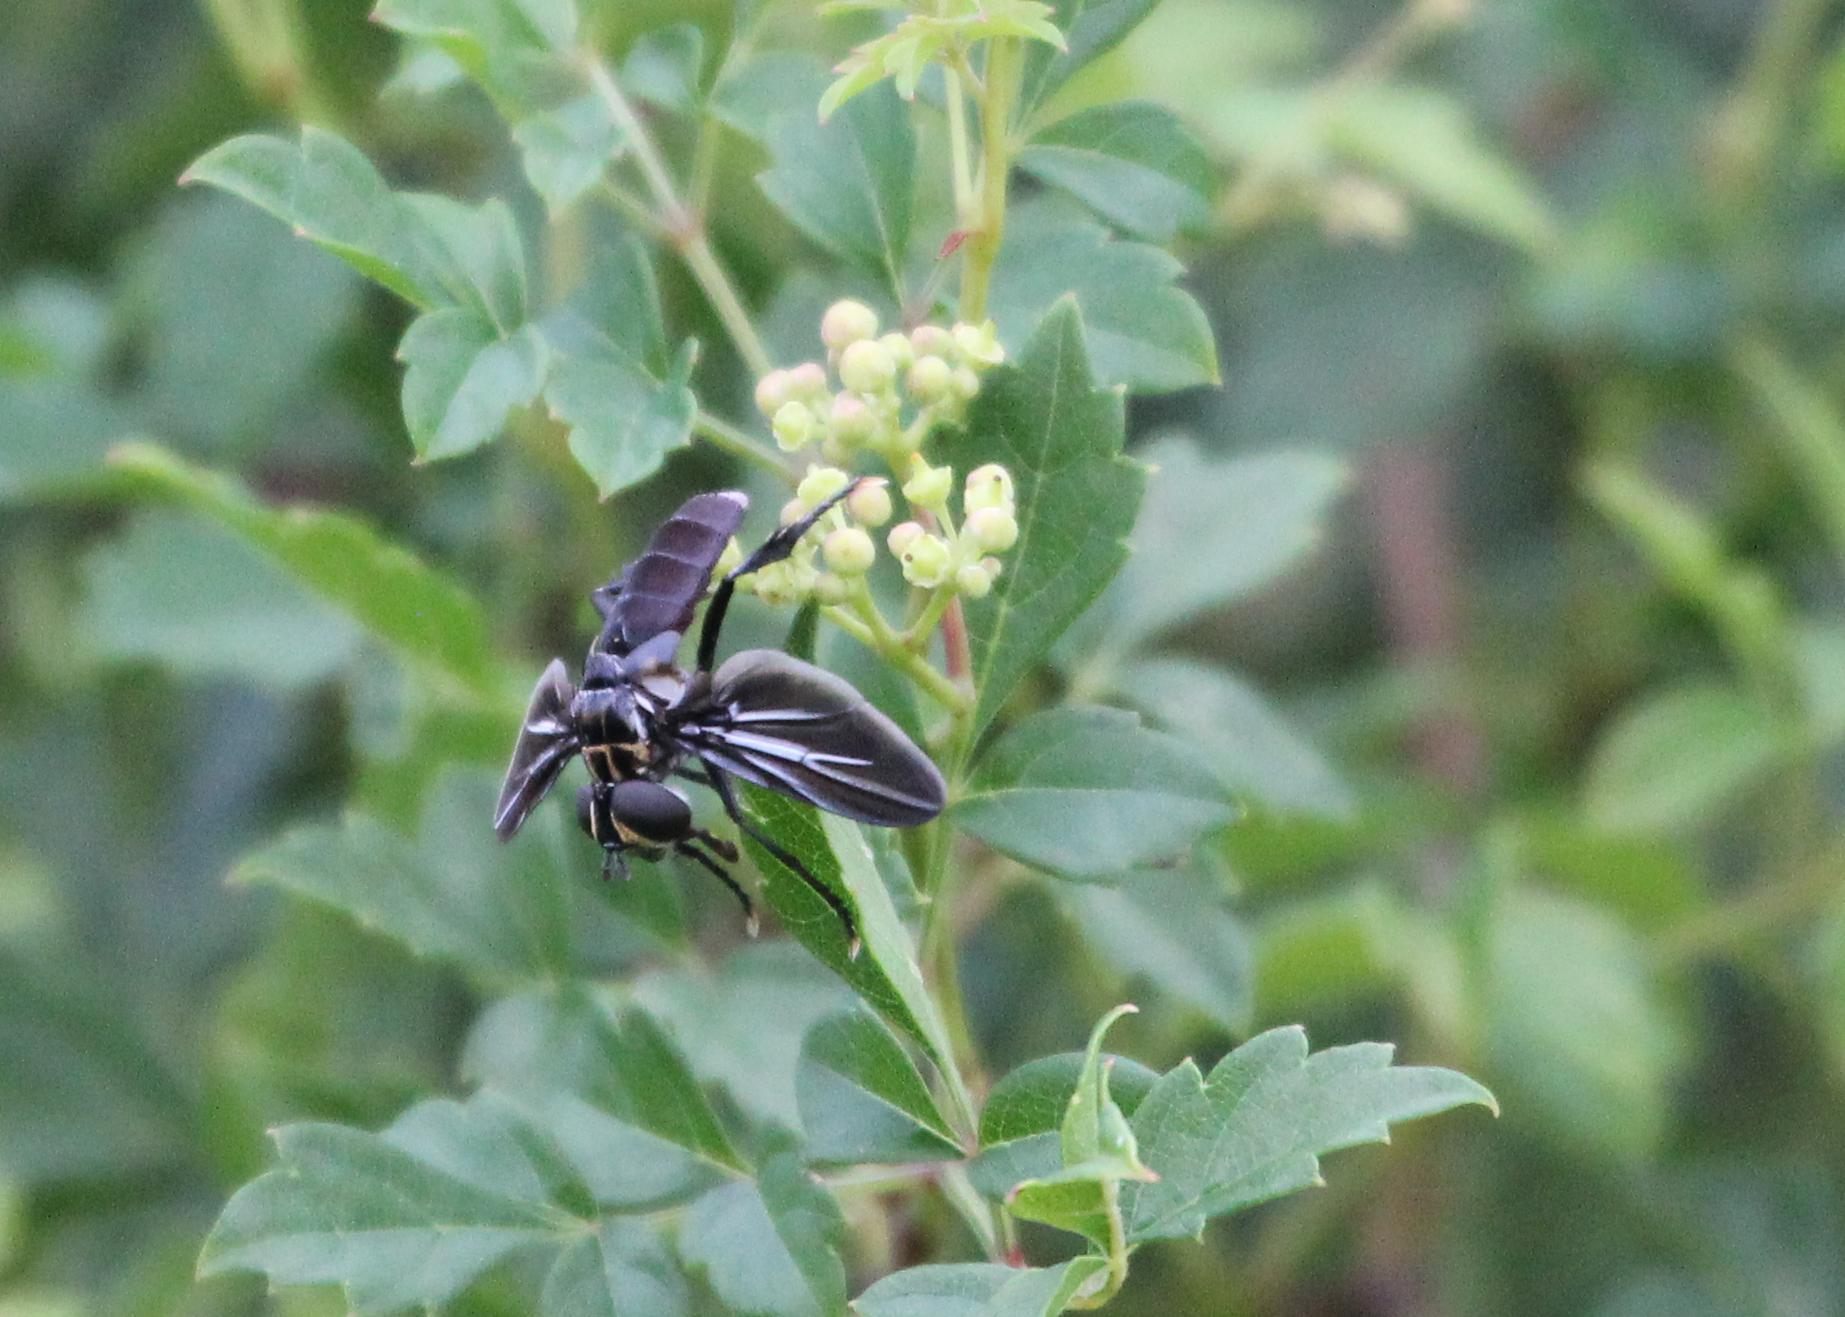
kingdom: Animalia
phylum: Arthropoda
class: Insecta
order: Diptera
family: Tachinidae
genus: Trichopoda
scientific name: Trichopoda lanipes
